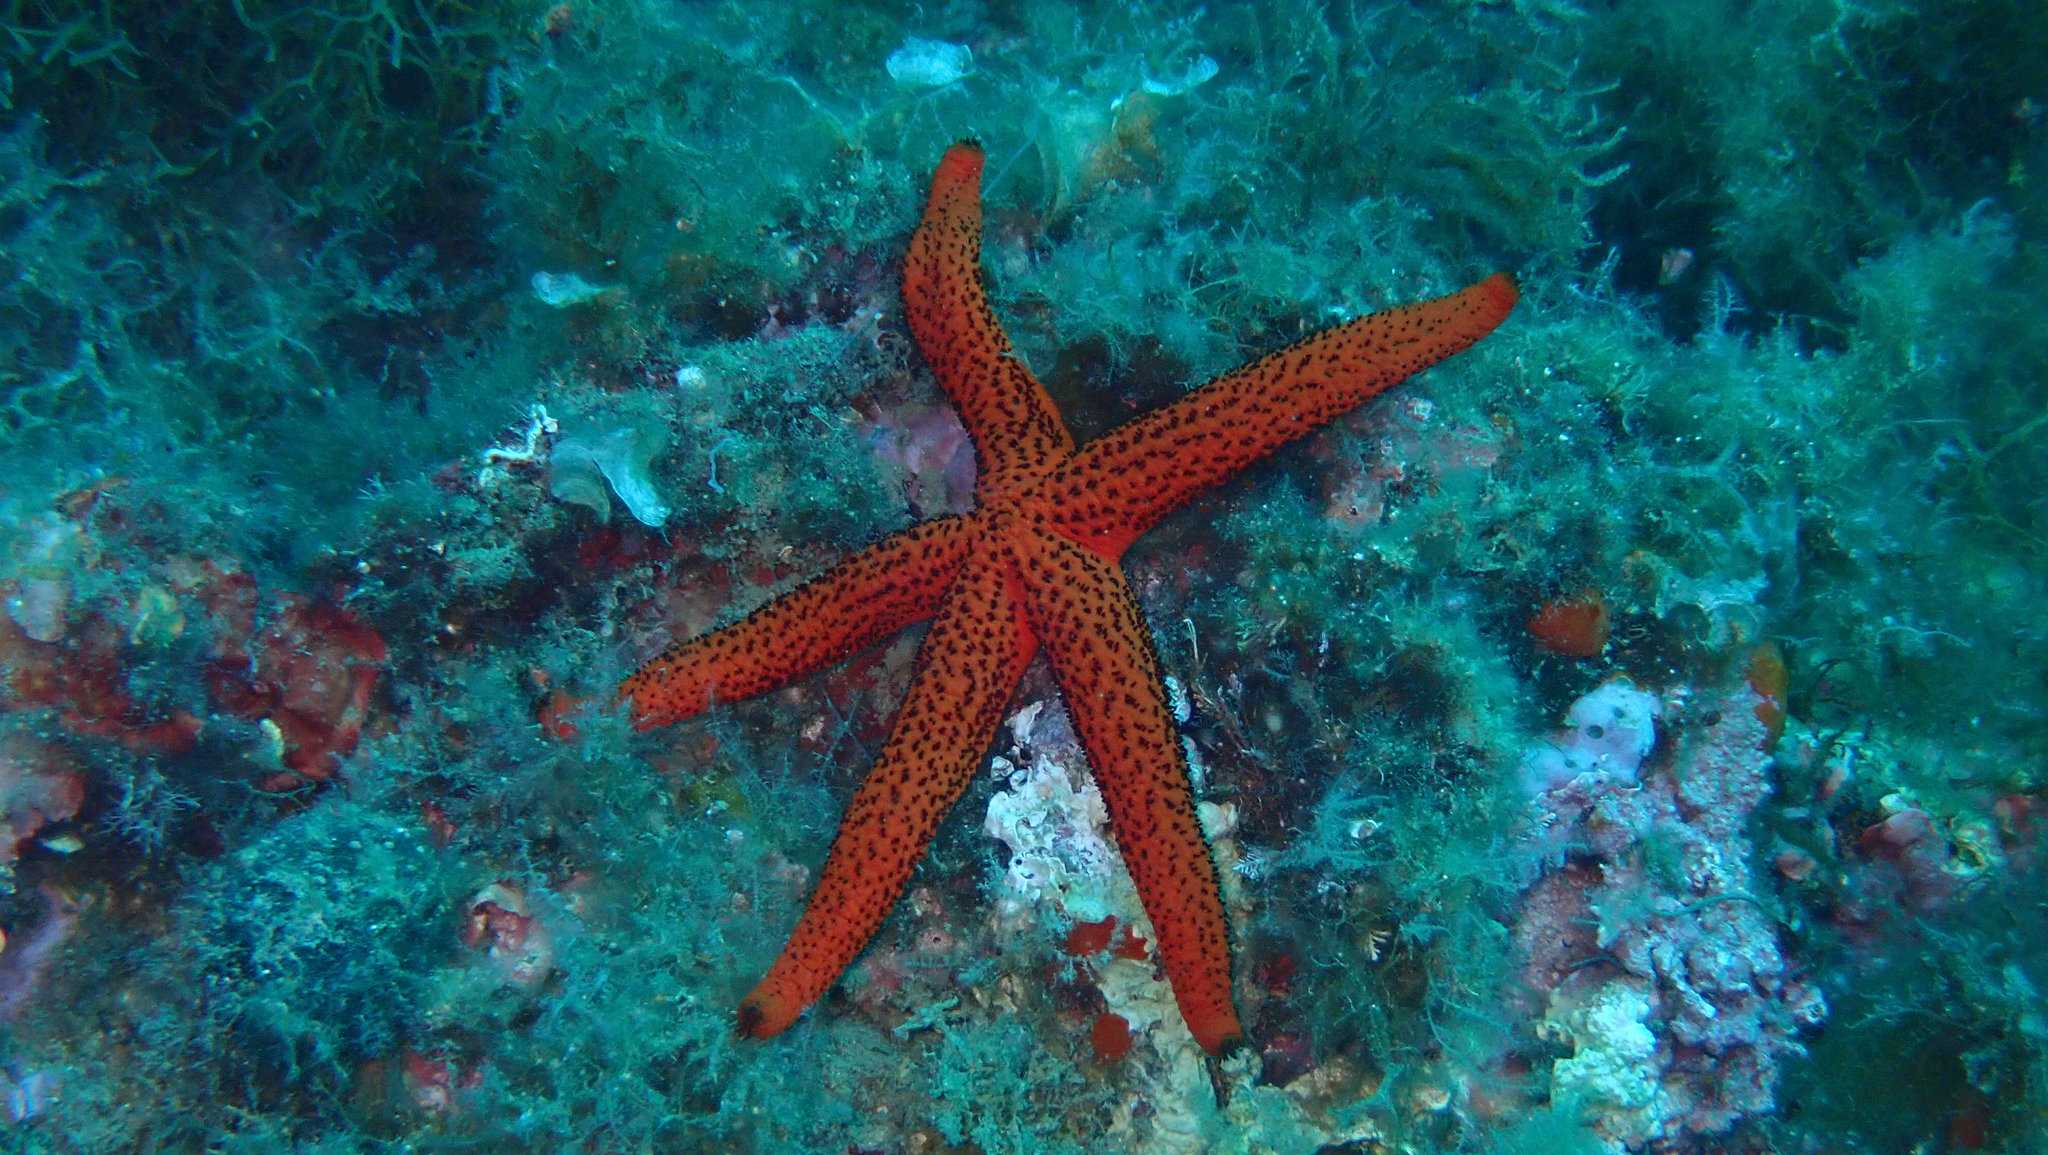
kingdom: Animalia
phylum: Echinodermata
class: Asteroidea
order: Spinulosida
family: Echinasteridae
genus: Echinaster
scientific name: Echinaster sepositus
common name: Red starfish
